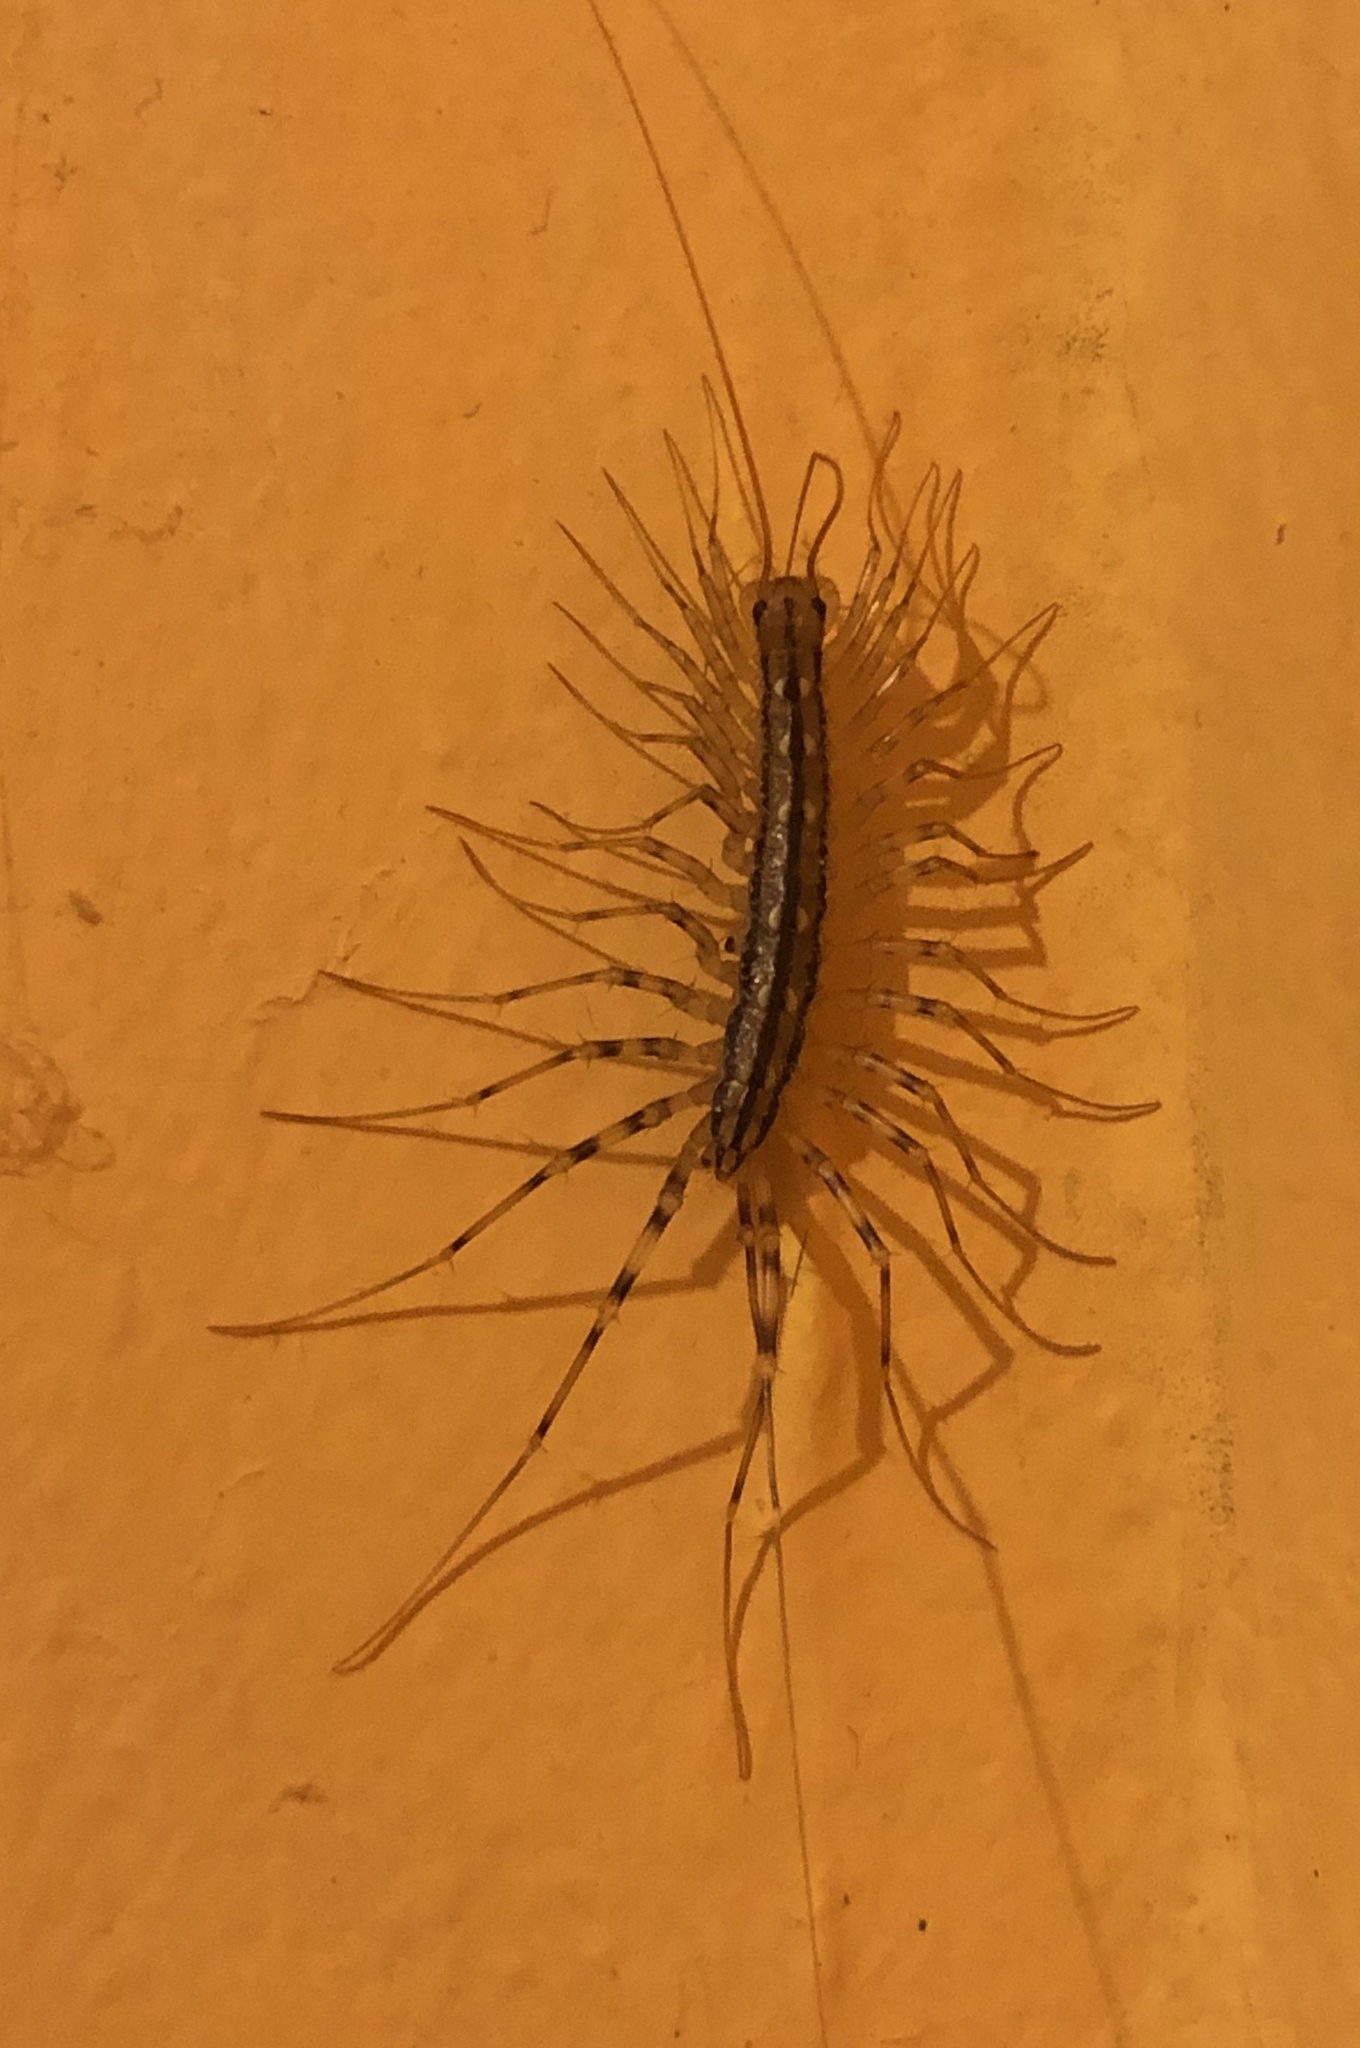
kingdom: Animalia
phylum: Arthropoda
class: Chilopoda
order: Scutigeromorpha
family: Scutigeridae
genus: Scutigera
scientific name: Scutigera coleoptrata
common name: House centipede
